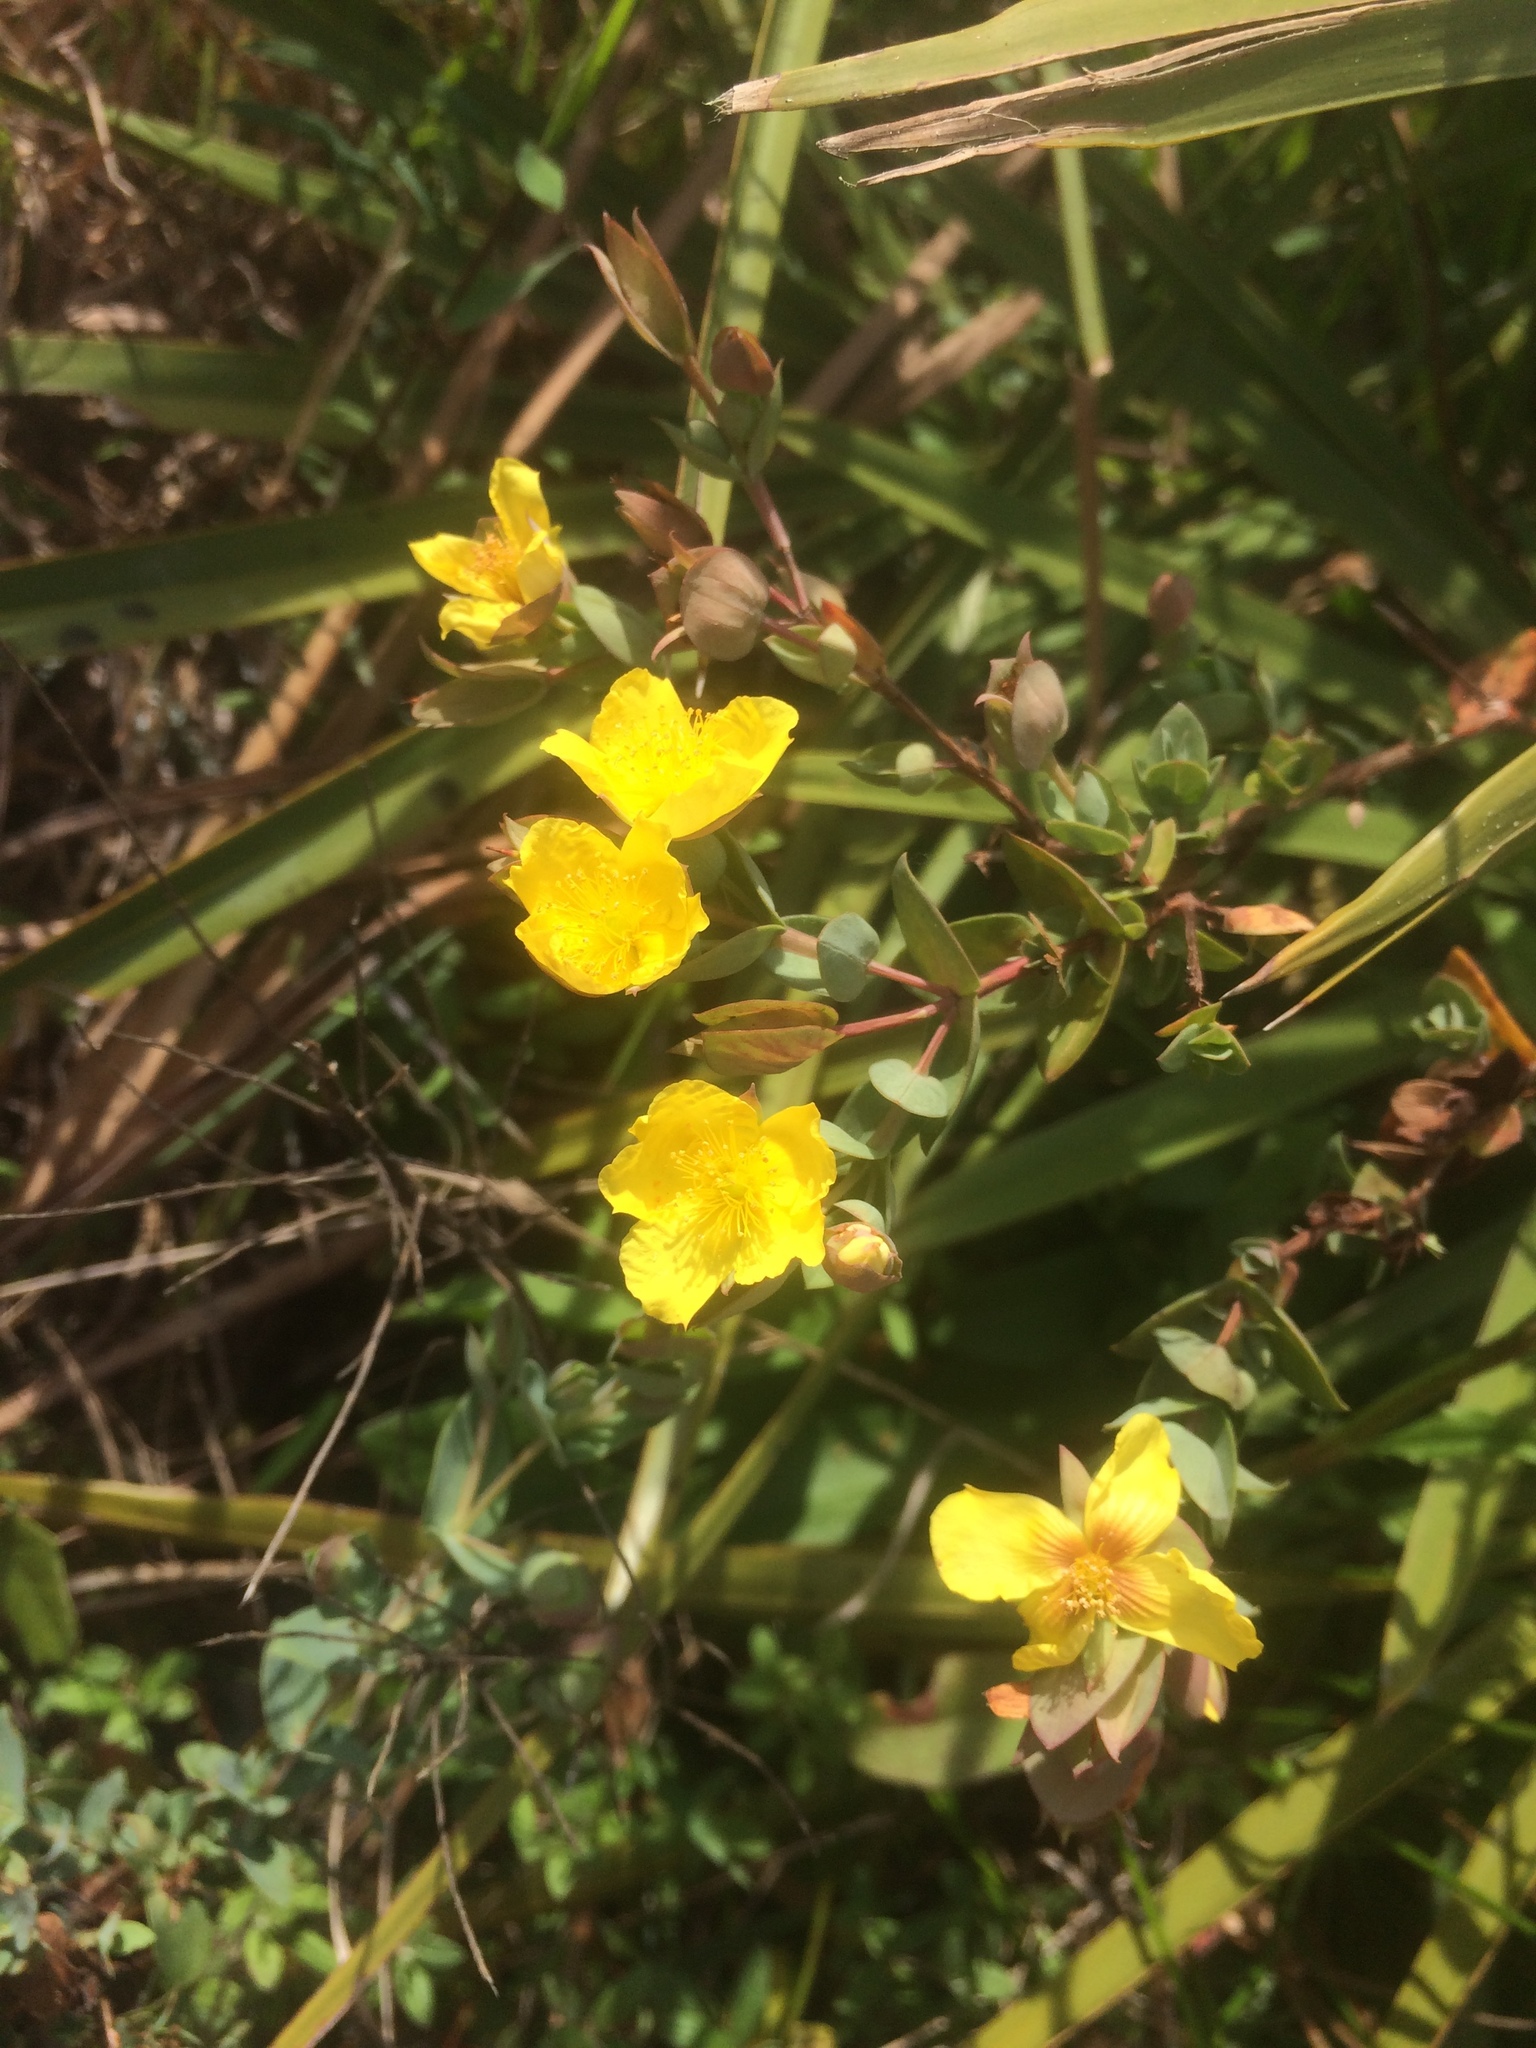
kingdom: Plantae
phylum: Tracheophyta
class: Magnoliopsida
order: Malpighiales
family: Hypericaceae
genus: Hypericum
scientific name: Hypericum tetrapetalum
